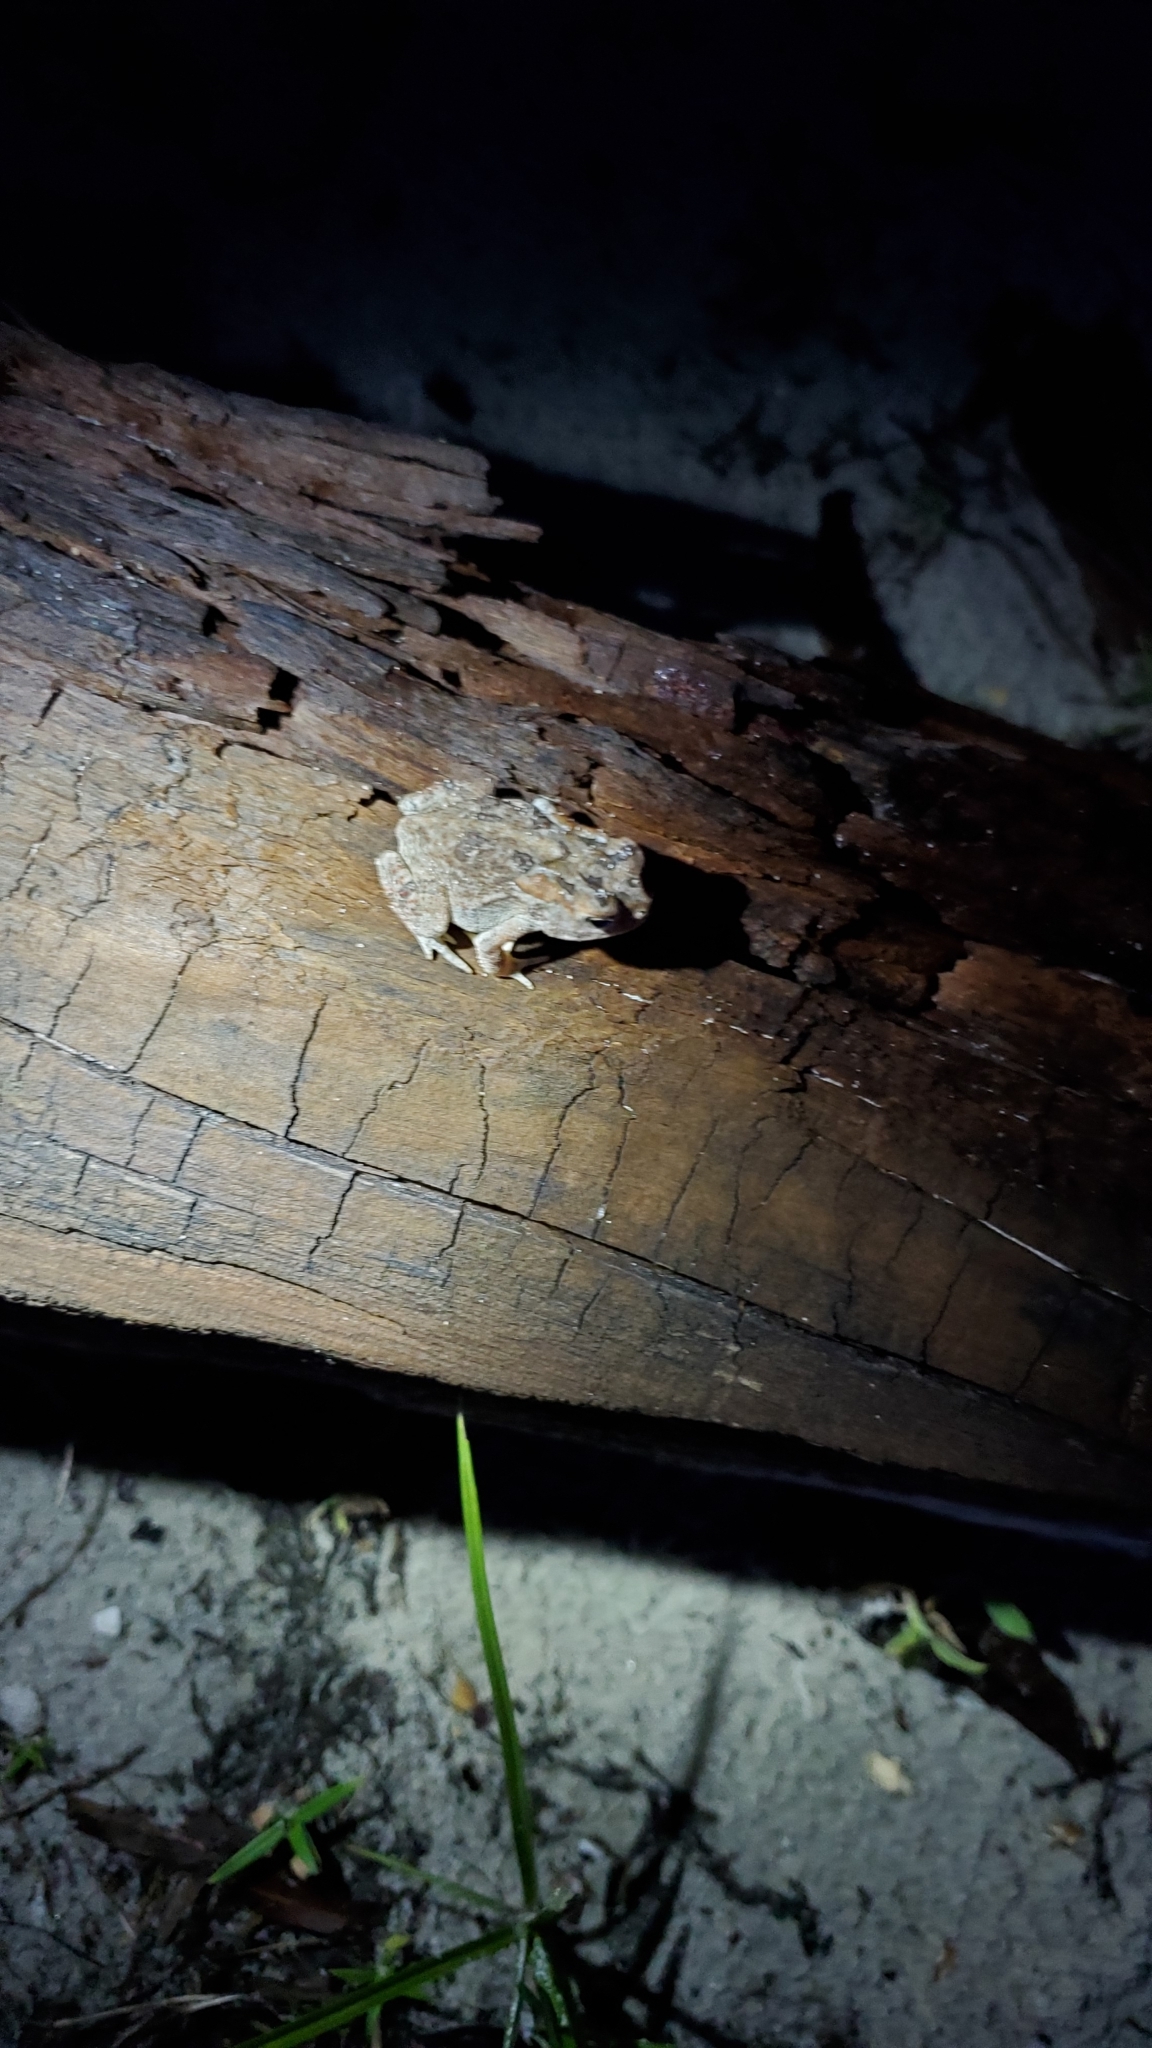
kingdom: Animalia
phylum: Chordata
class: Amphibia
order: Anura
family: Bufonidae
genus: Anaxyrus
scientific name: Anaxyrus terrestris
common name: Southern toad
